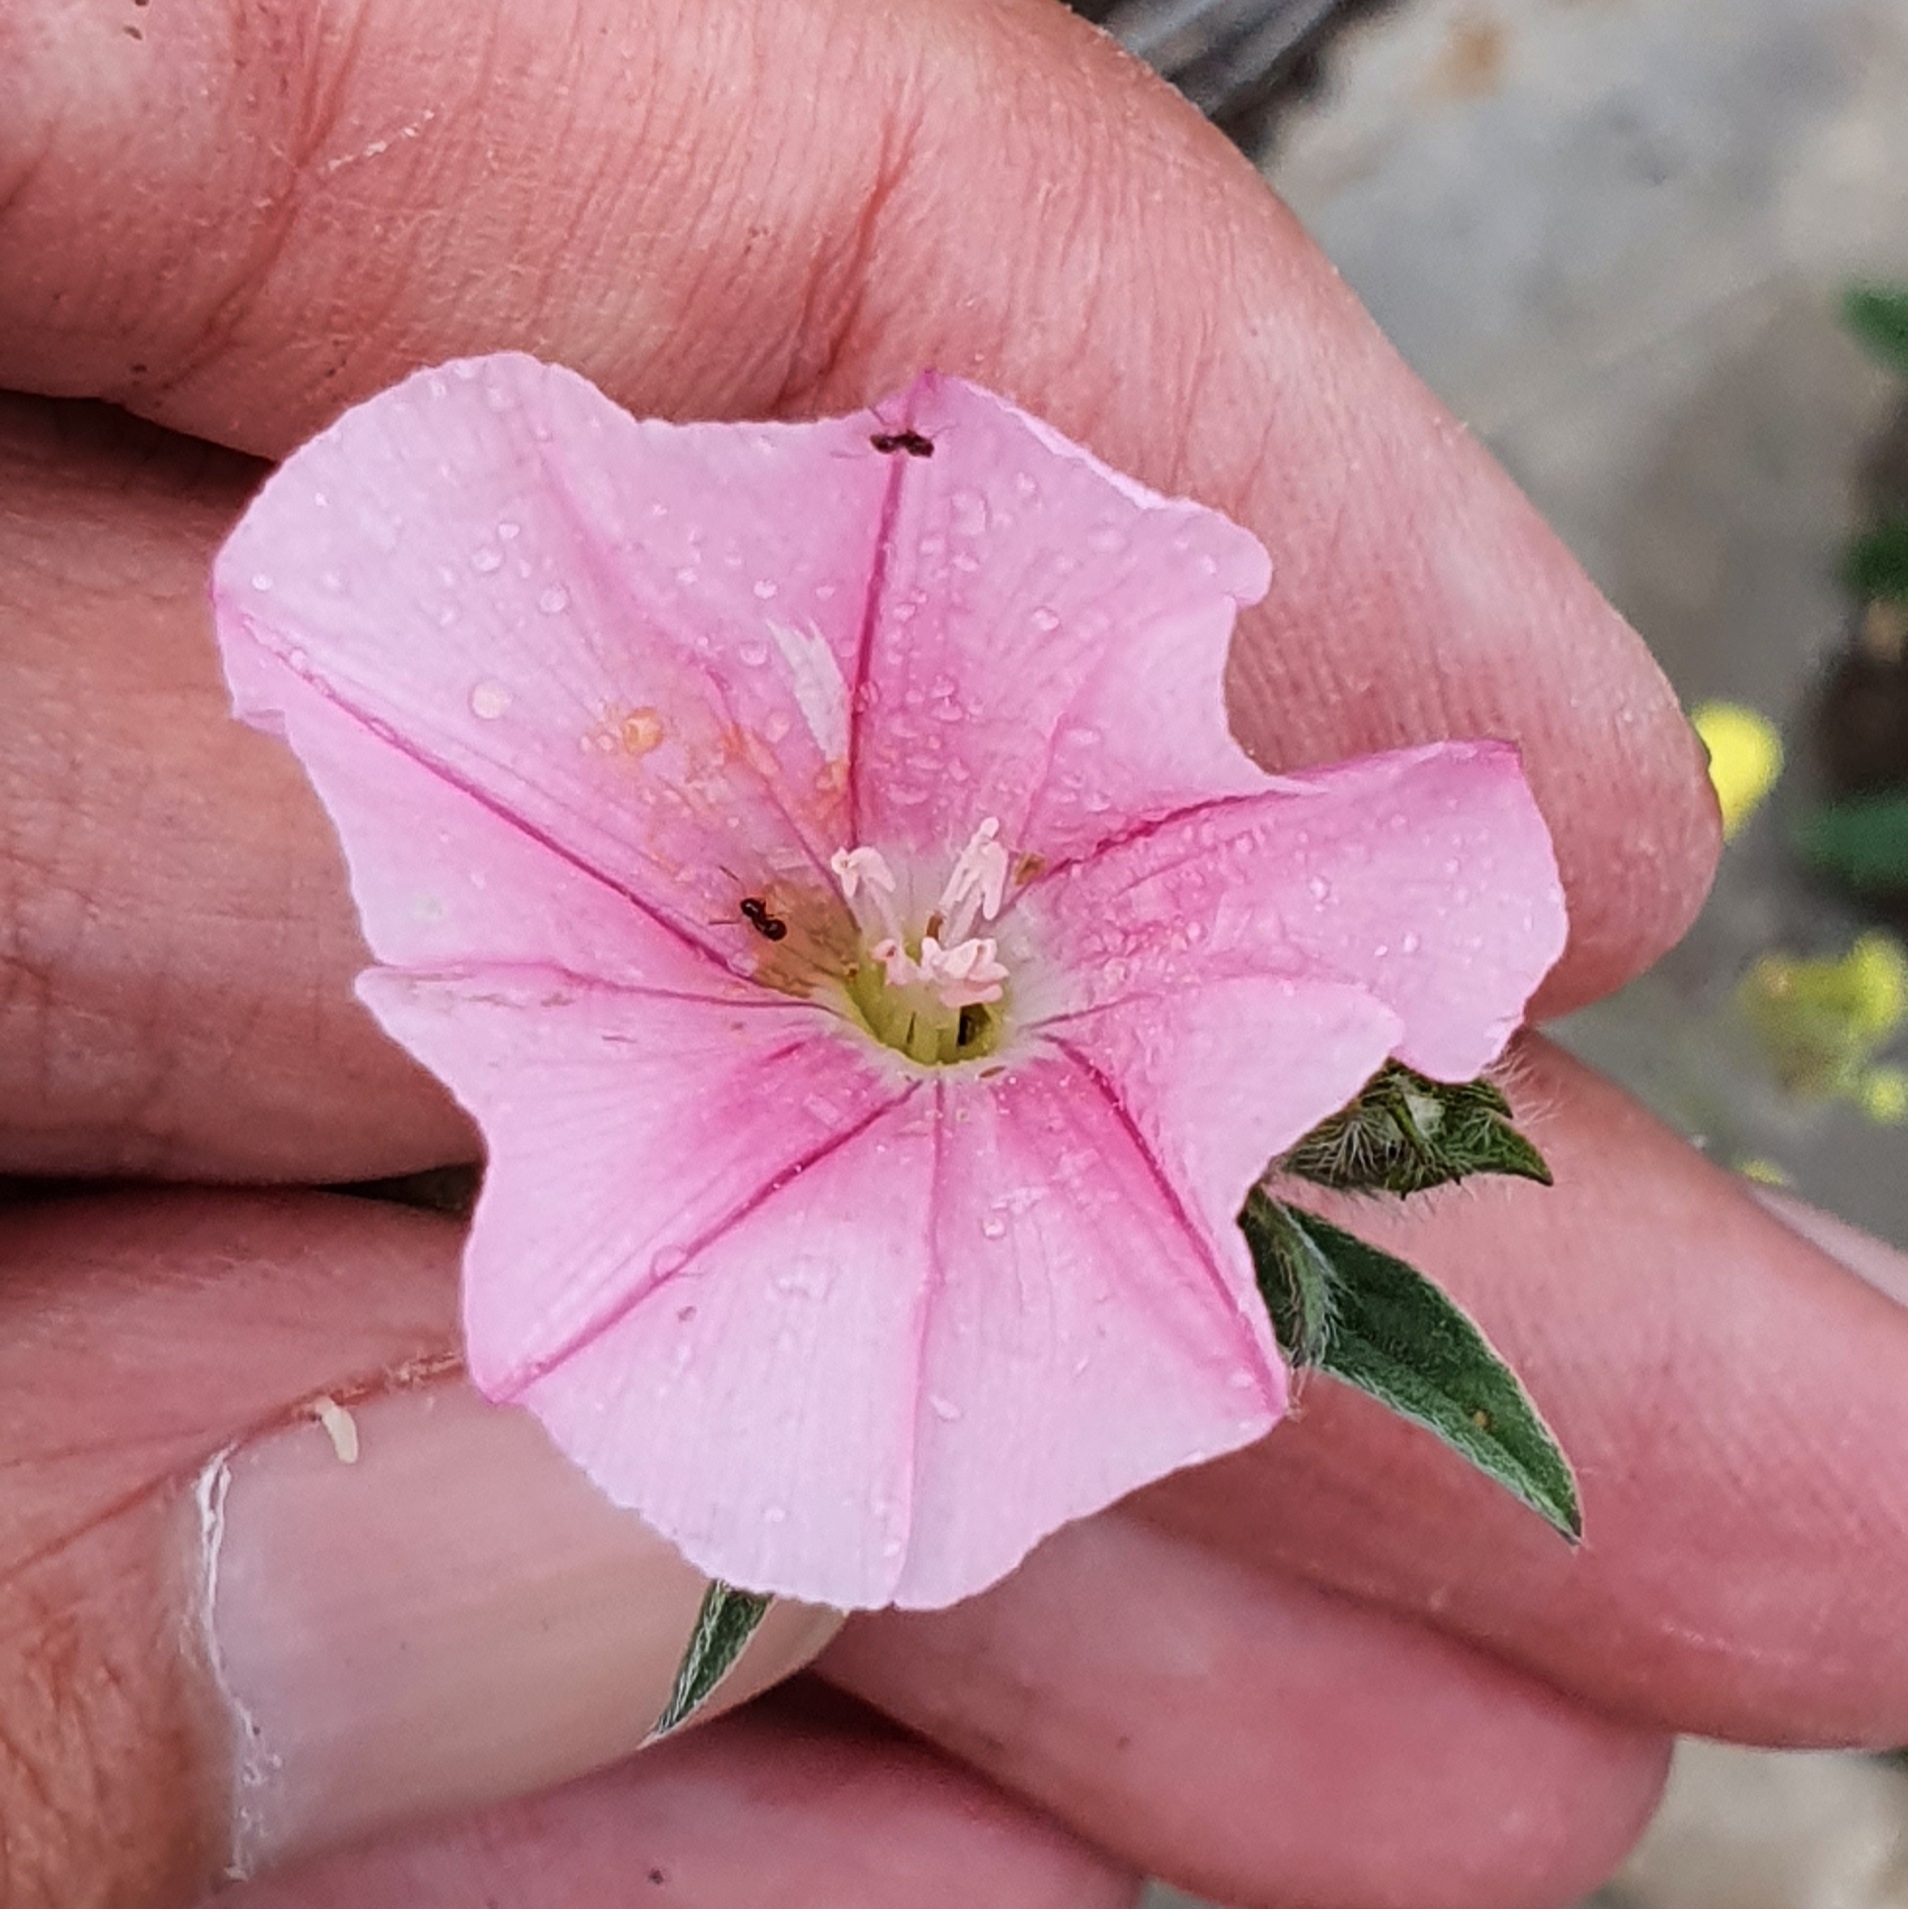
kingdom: Plantae
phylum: Tracheophyta
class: Magnoliopsida
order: Solanales
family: Convolvulaceae
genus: Convolvulus
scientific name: Convolvulus cantabrica
